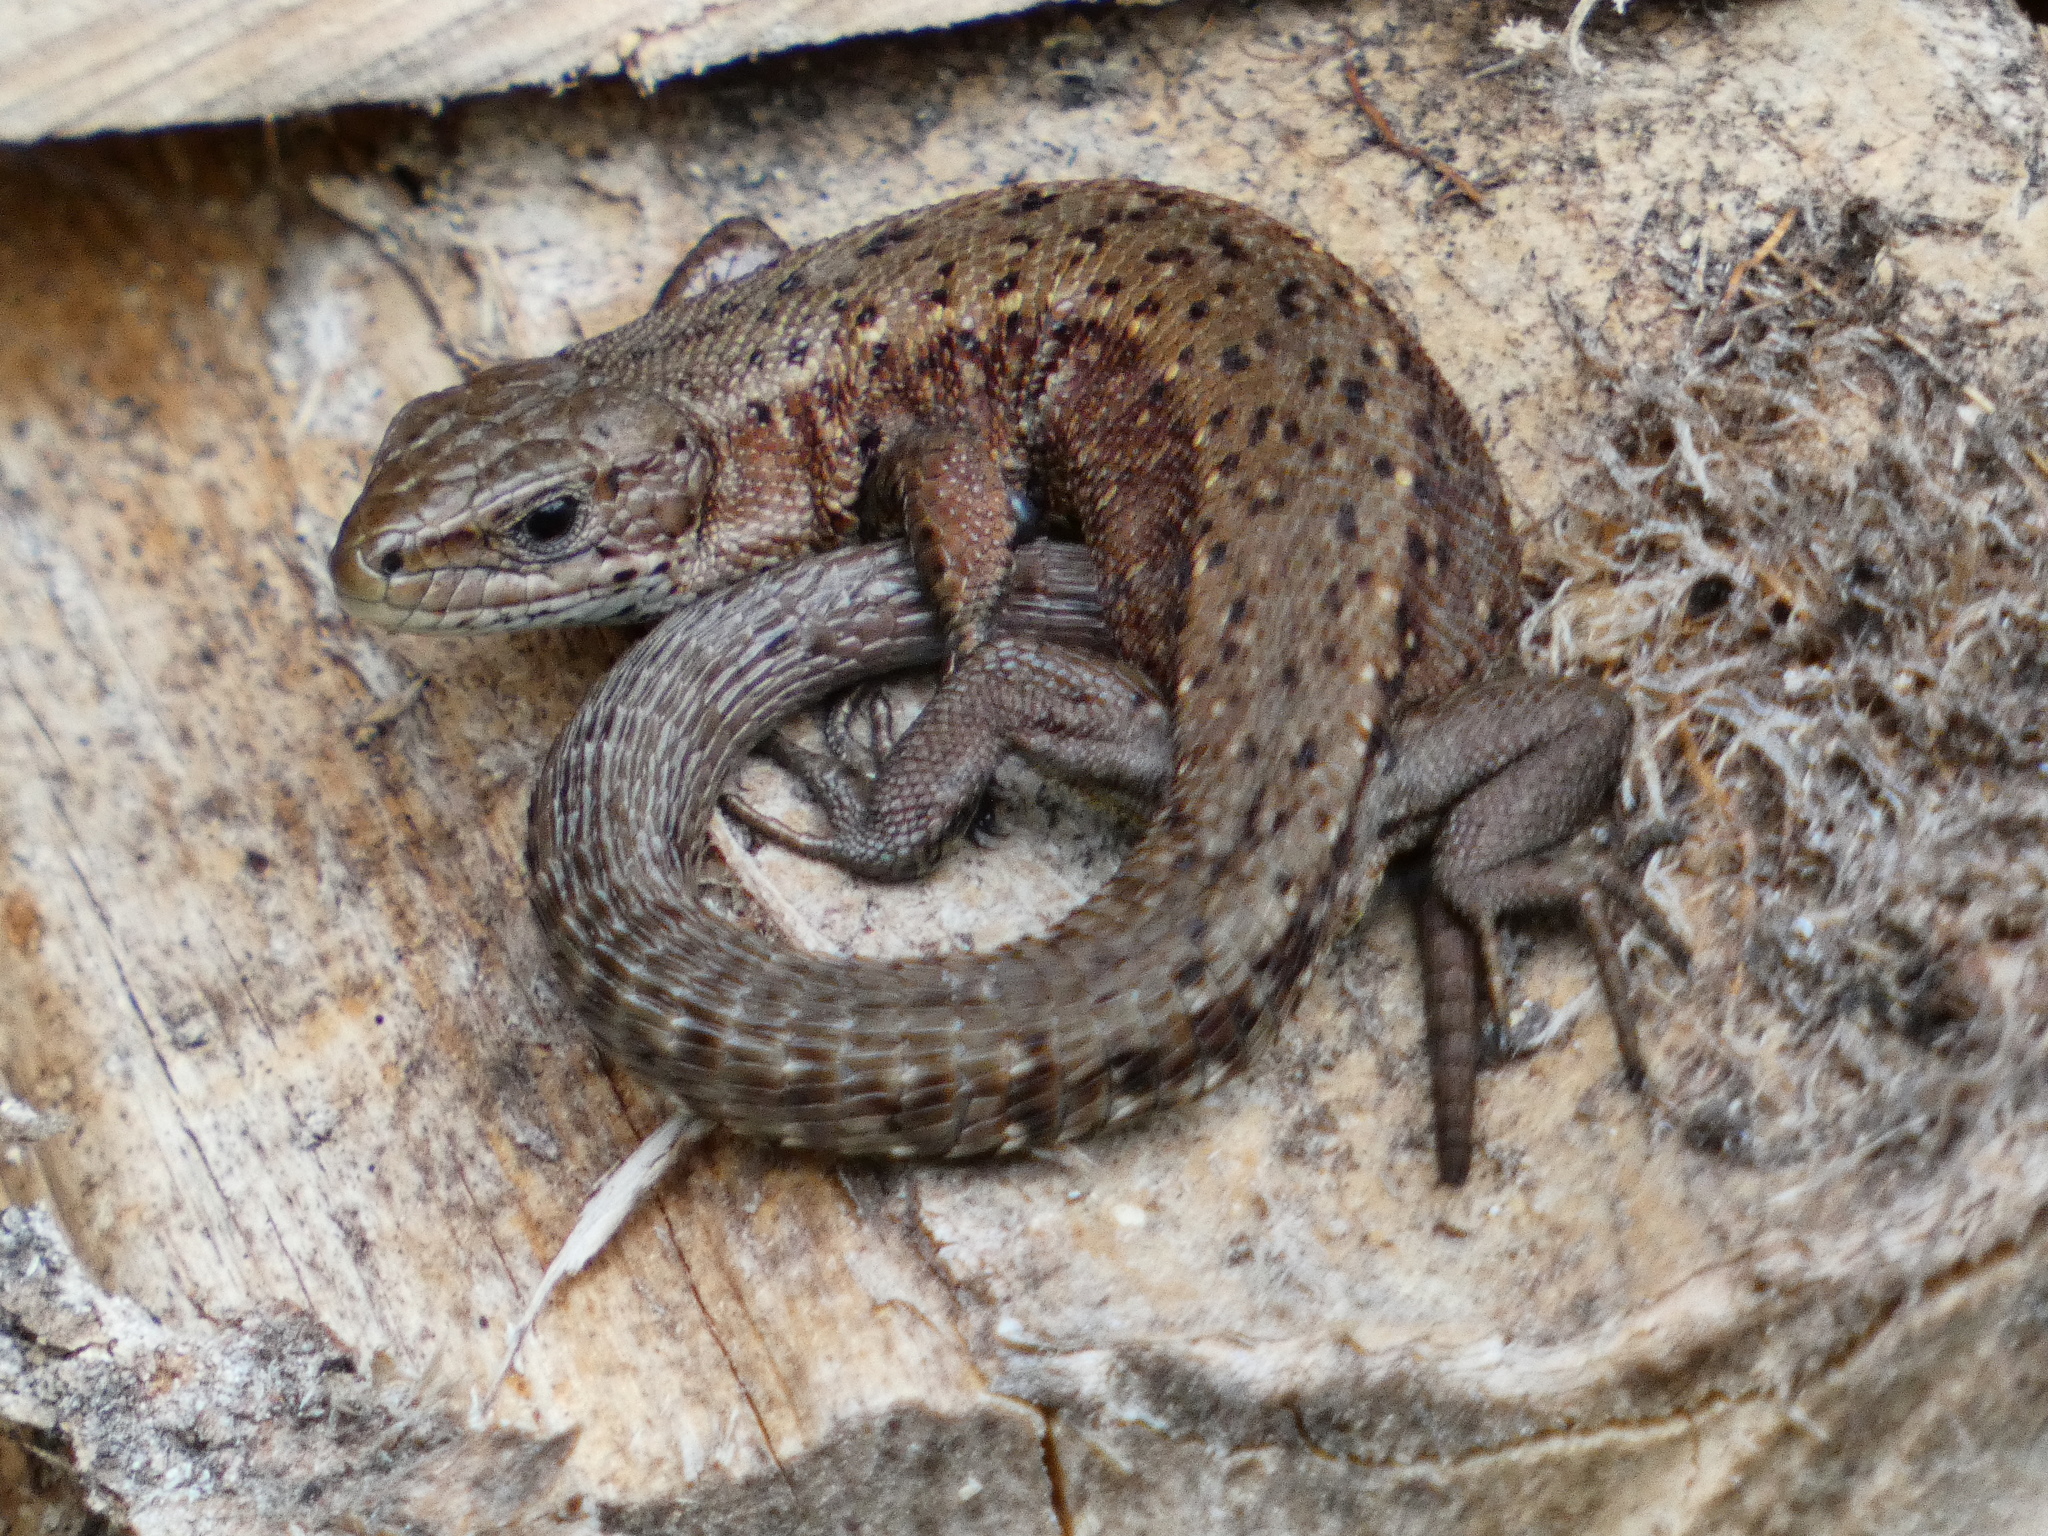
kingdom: Animalia
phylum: Chordata
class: Squamata
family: Lacertidae
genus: Zootoca
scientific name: Zootoca vivipara
